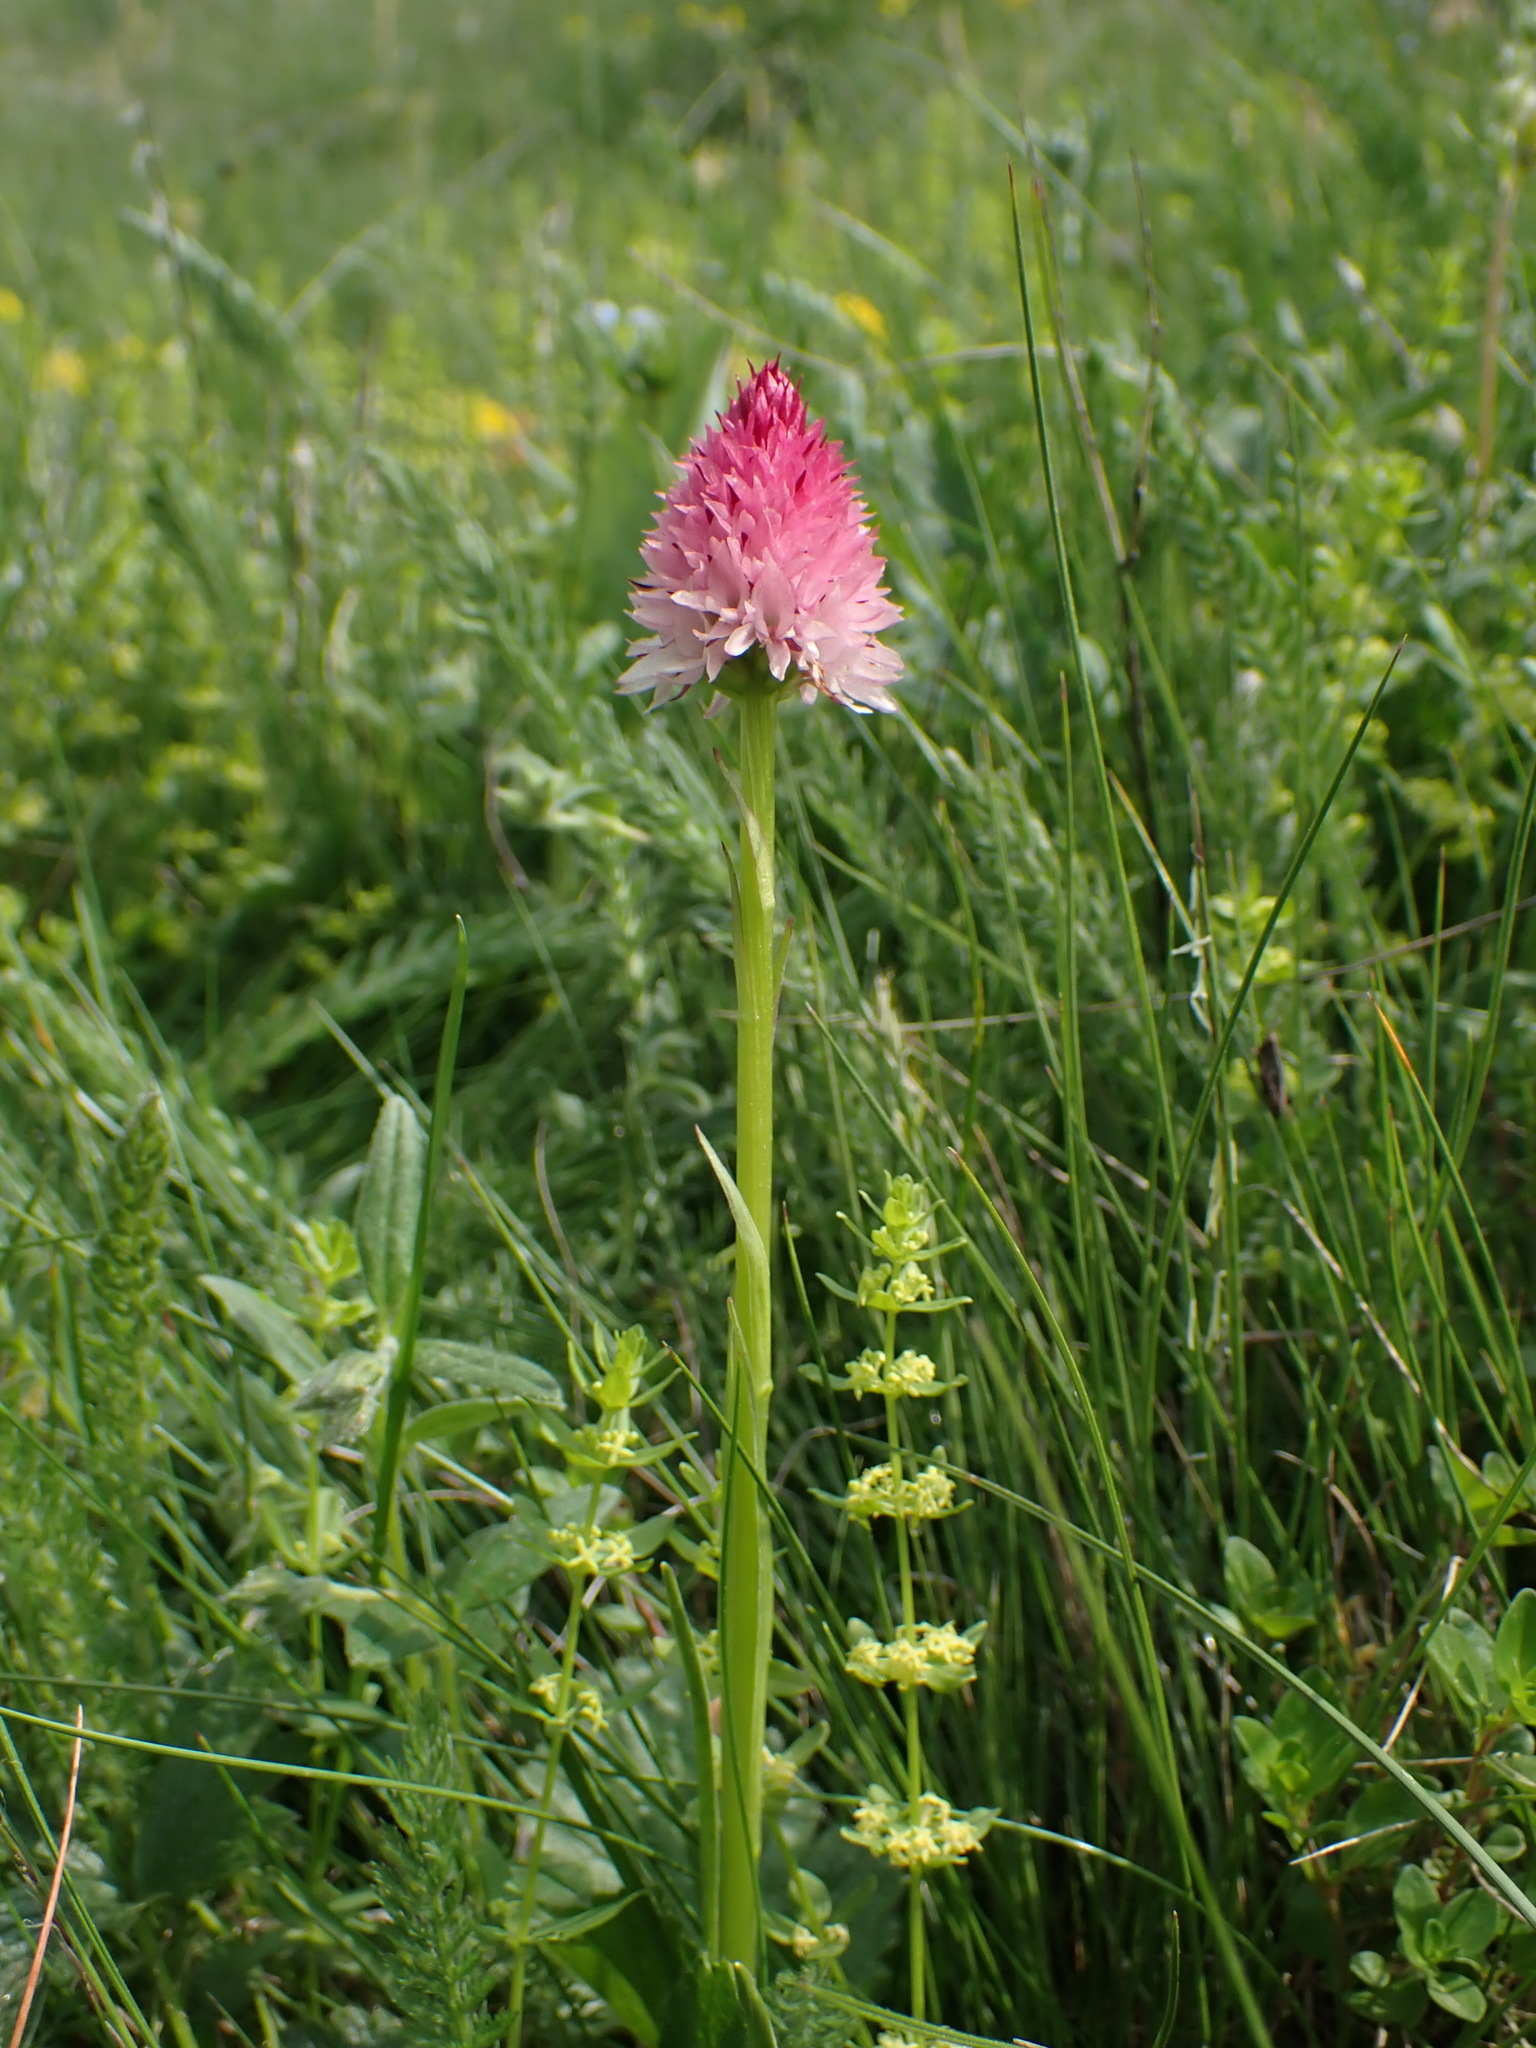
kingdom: Plantae
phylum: Tracheophyta
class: Liliopsida
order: Asparagales
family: Orchidaceae
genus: Gymnadenia
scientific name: Gymnadenia corneliana
